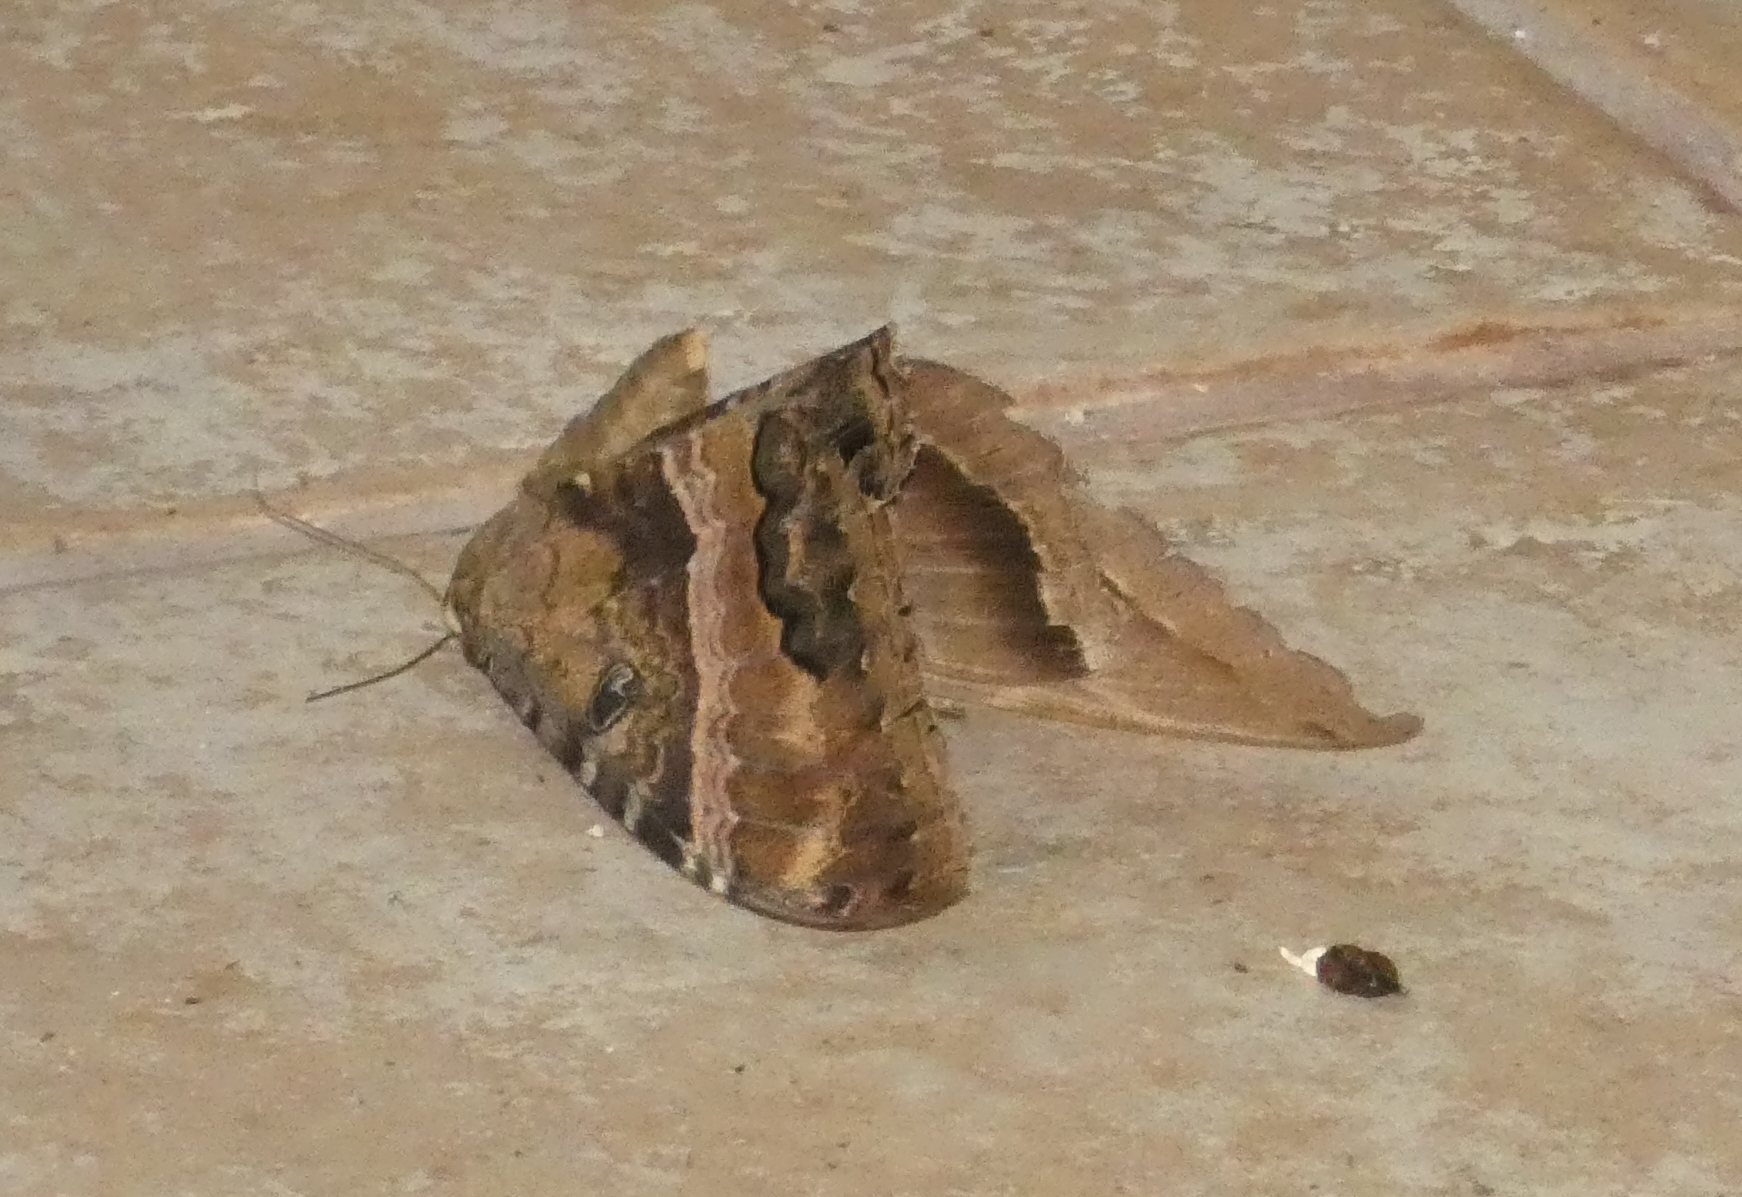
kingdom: Animalia
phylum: Arthropoda
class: Insecta
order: Lepidoptera
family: Erebidae
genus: Ascalapha
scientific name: Ascalapha odorata
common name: Black witch
